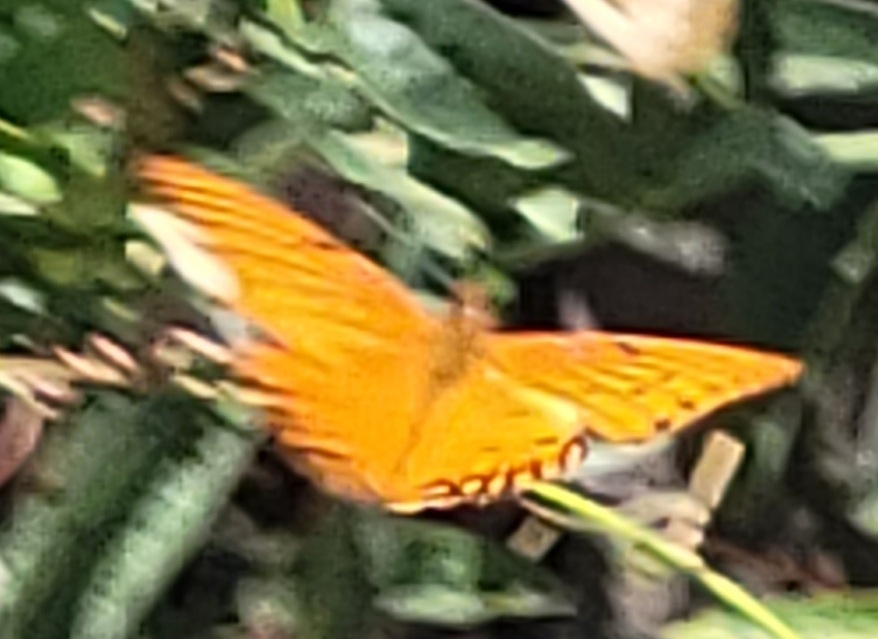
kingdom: Animalia
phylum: Arthropoda
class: Insecta
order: Lepidoptera
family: Nymphalidae
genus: Dione
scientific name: Dione vanillae
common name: Gulf fritillary
